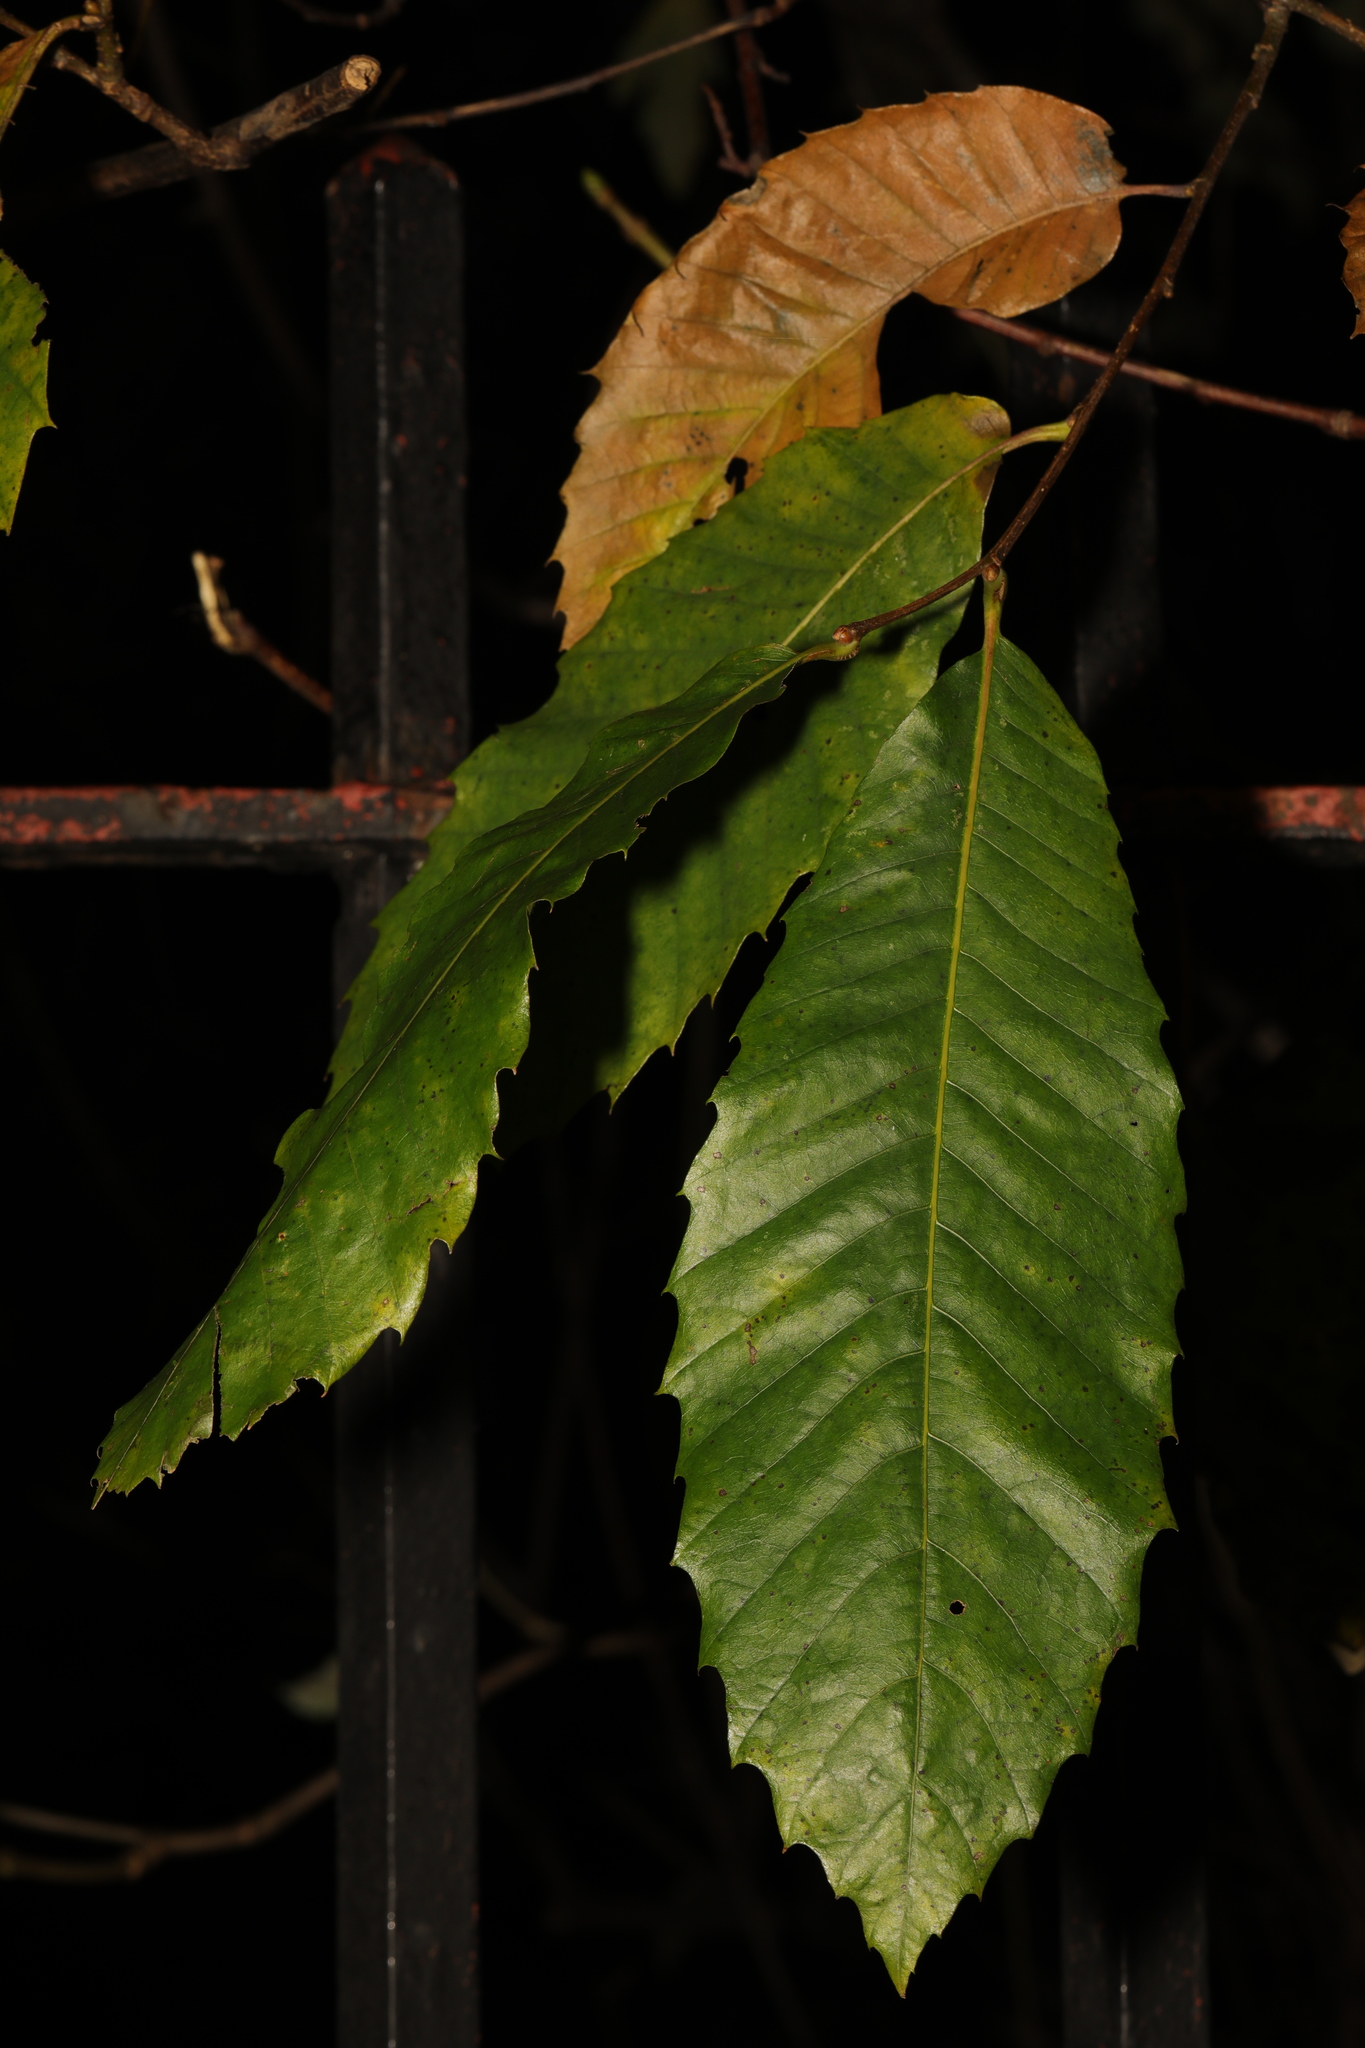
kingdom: Plantae
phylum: Tracheophyta
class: Magnoliopsida
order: Fagales
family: Fagaceae
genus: Castanea
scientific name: Castanea sativa
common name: Sweet chestnut
